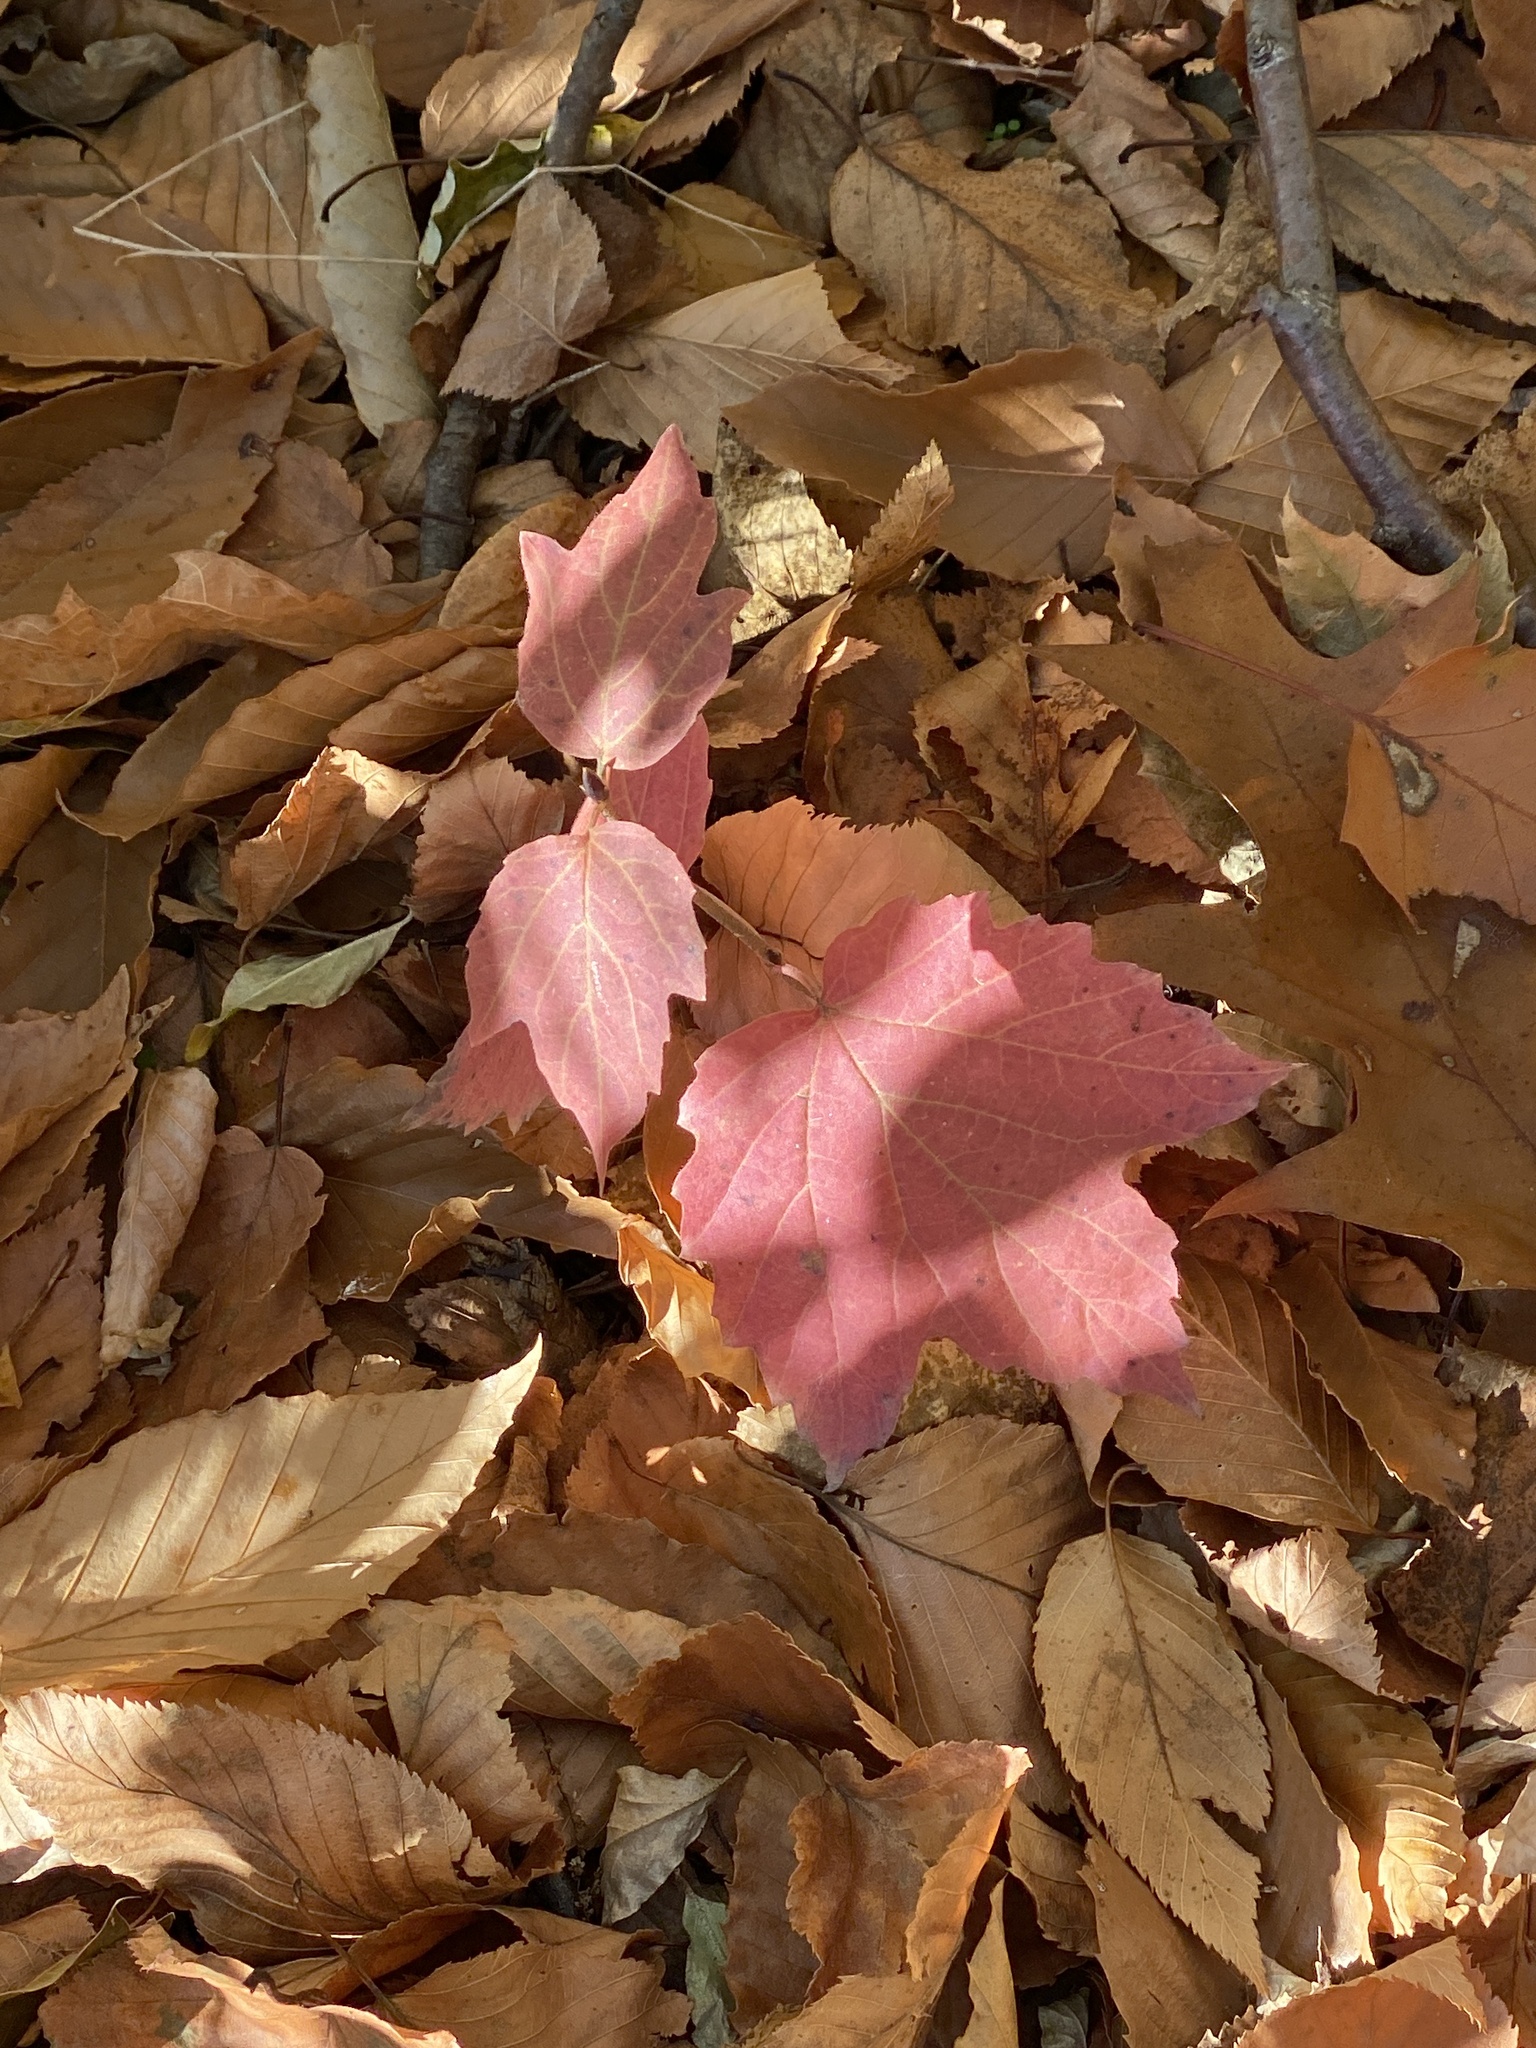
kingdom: Plantae
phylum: Tracheophyta
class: Magnoliopsida
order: Dipsacales
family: Viburnaceae
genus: Viburnum
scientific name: Viburnum acerifolium
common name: Dockmackie
